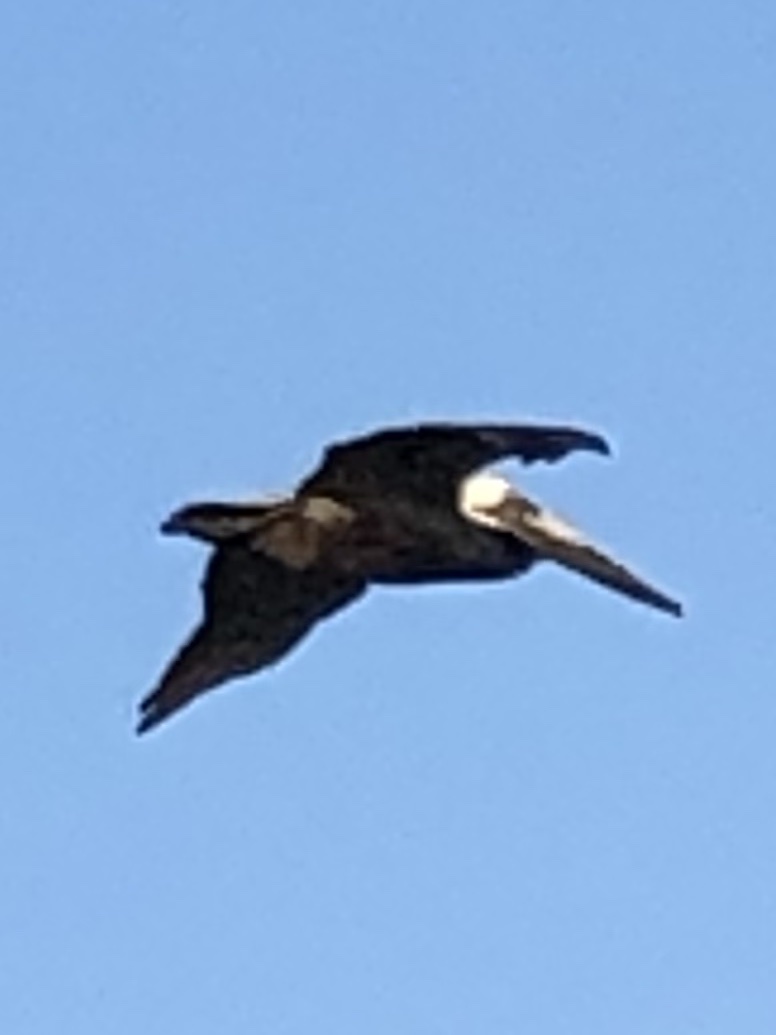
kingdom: Animalia
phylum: Chordata
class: Aves
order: Pelecaniformes
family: Pelecanidae
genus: Pelecanus
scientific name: Pelecanus occidentalis
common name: Brown pelican
